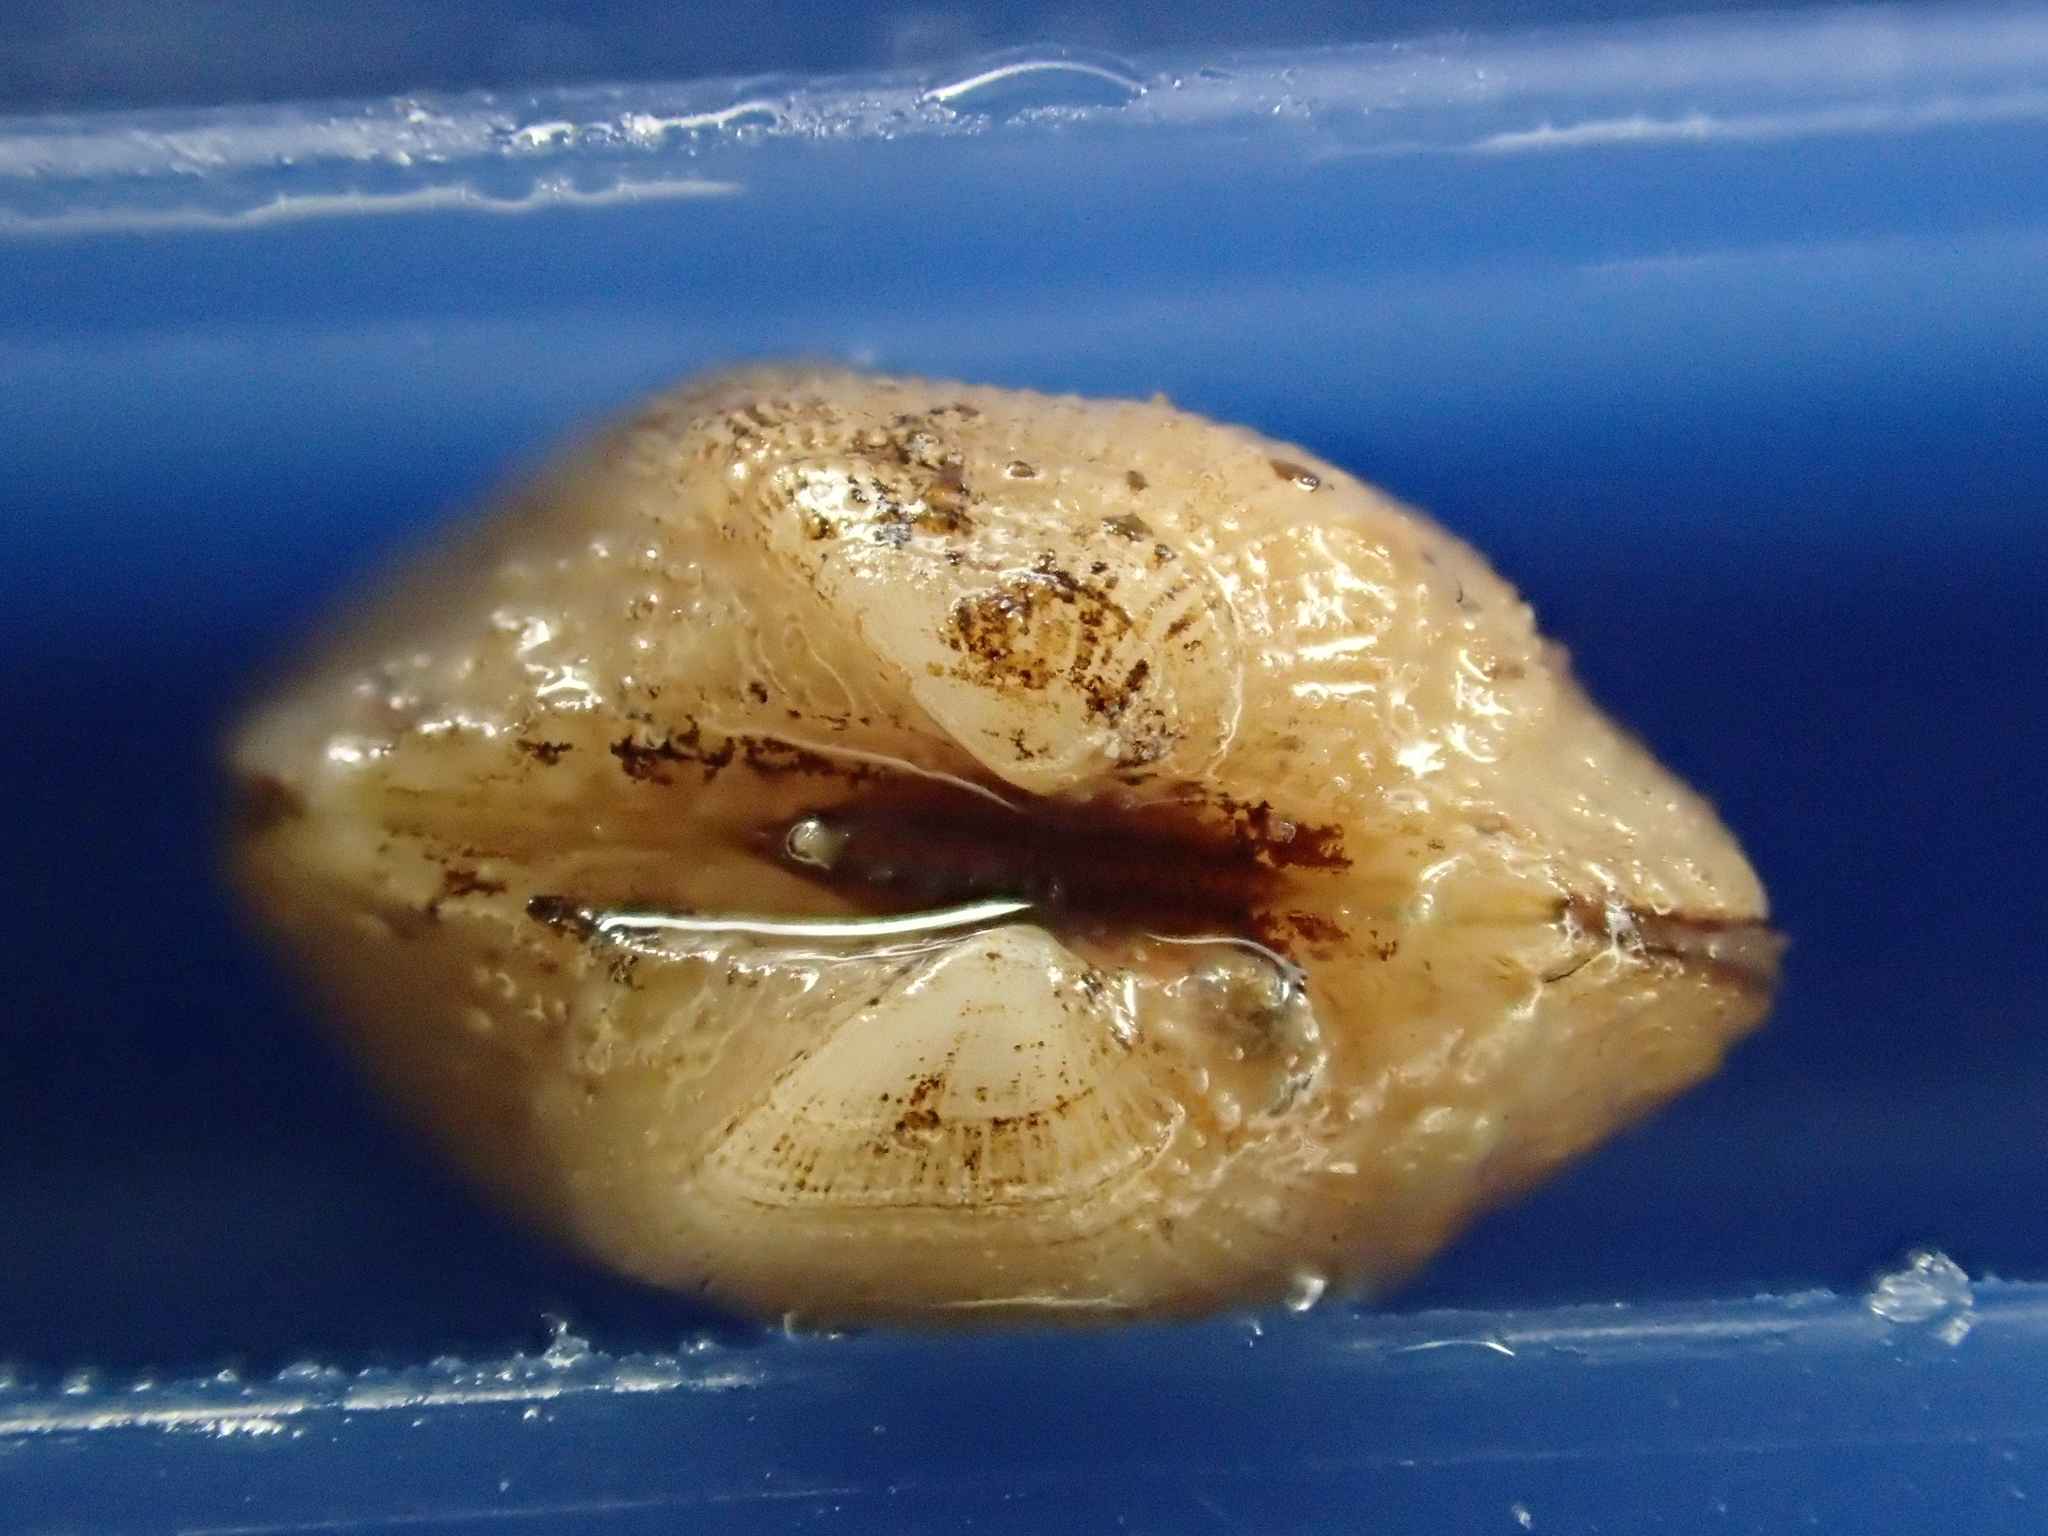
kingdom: Animalia
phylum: Mollusca
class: Bivalvia
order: Arcida
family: Noetiidae
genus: Striarca
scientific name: Striarca lactea
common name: Milky-white ark
